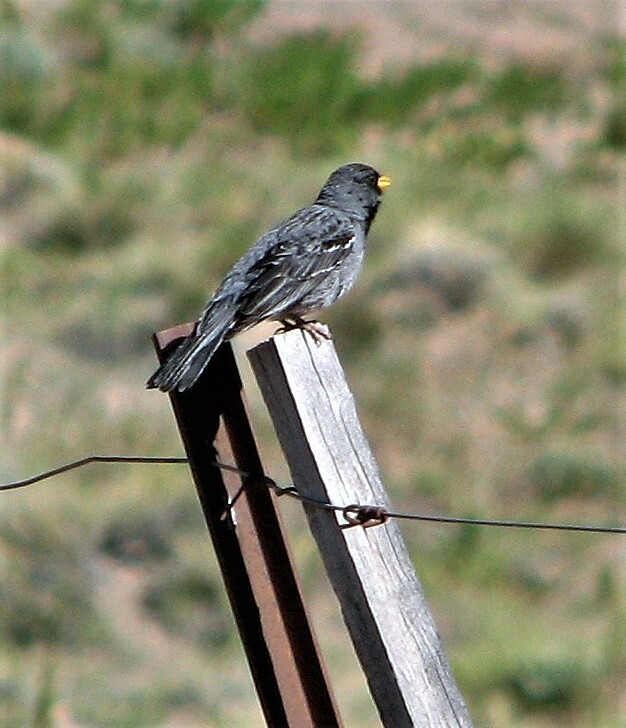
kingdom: Animalia
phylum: Chordata
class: Aves
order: Passeriformes
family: Thraupidae
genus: Rhopospina
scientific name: Rhopospina fruticeti
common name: Mourning sierra finch
